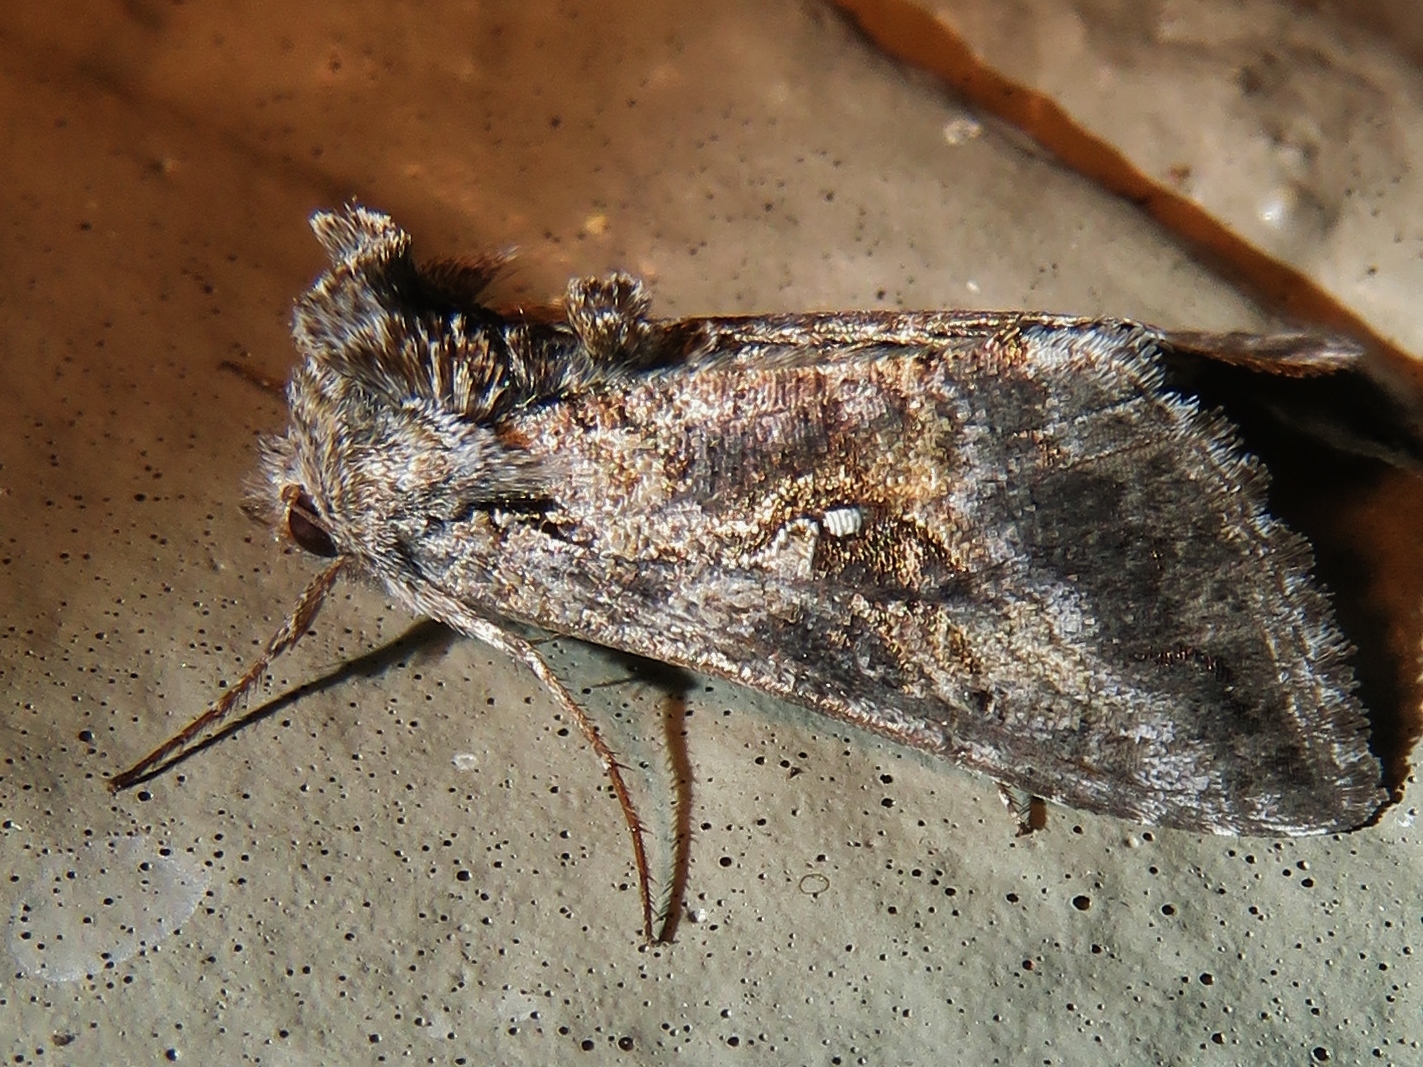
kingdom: Animalia
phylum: Arthropoda
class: Insecta
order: Lepidoptera
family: Noctuidae
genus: Rachiplusia
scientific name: Rachiplusia ou
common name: Gray looper moth
